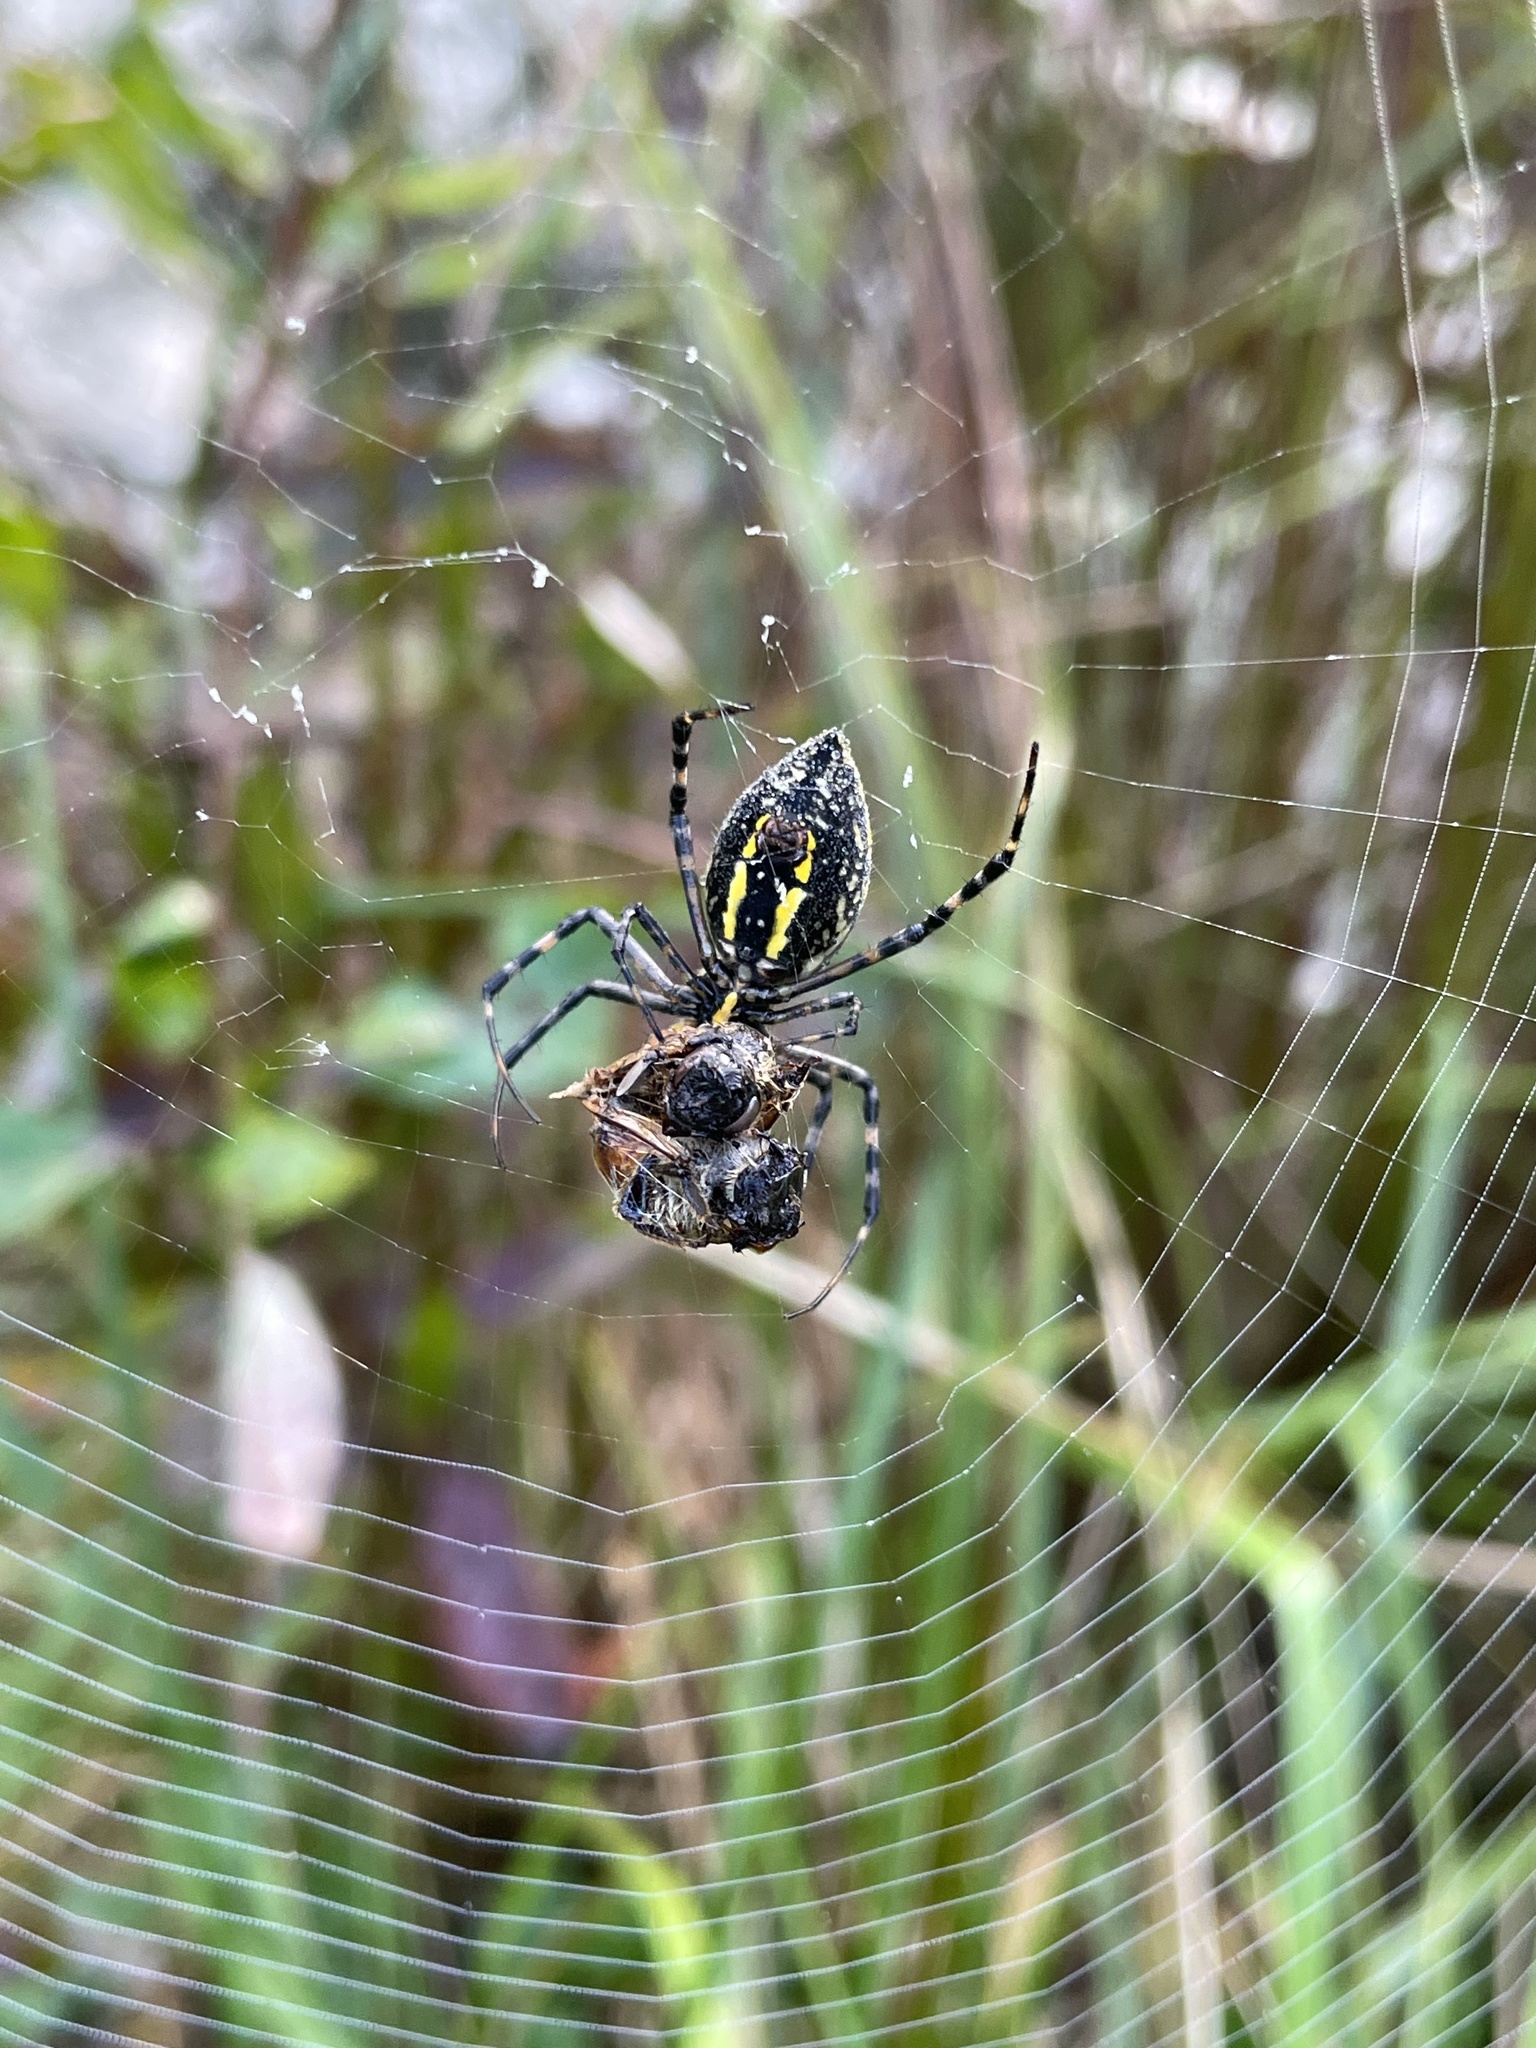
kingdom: Animalia
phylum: Arthropoda
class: Arachnida
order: Araneae
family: Araneidae
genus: Argiope
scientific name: Argiope aurantia
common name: Orb weavers
